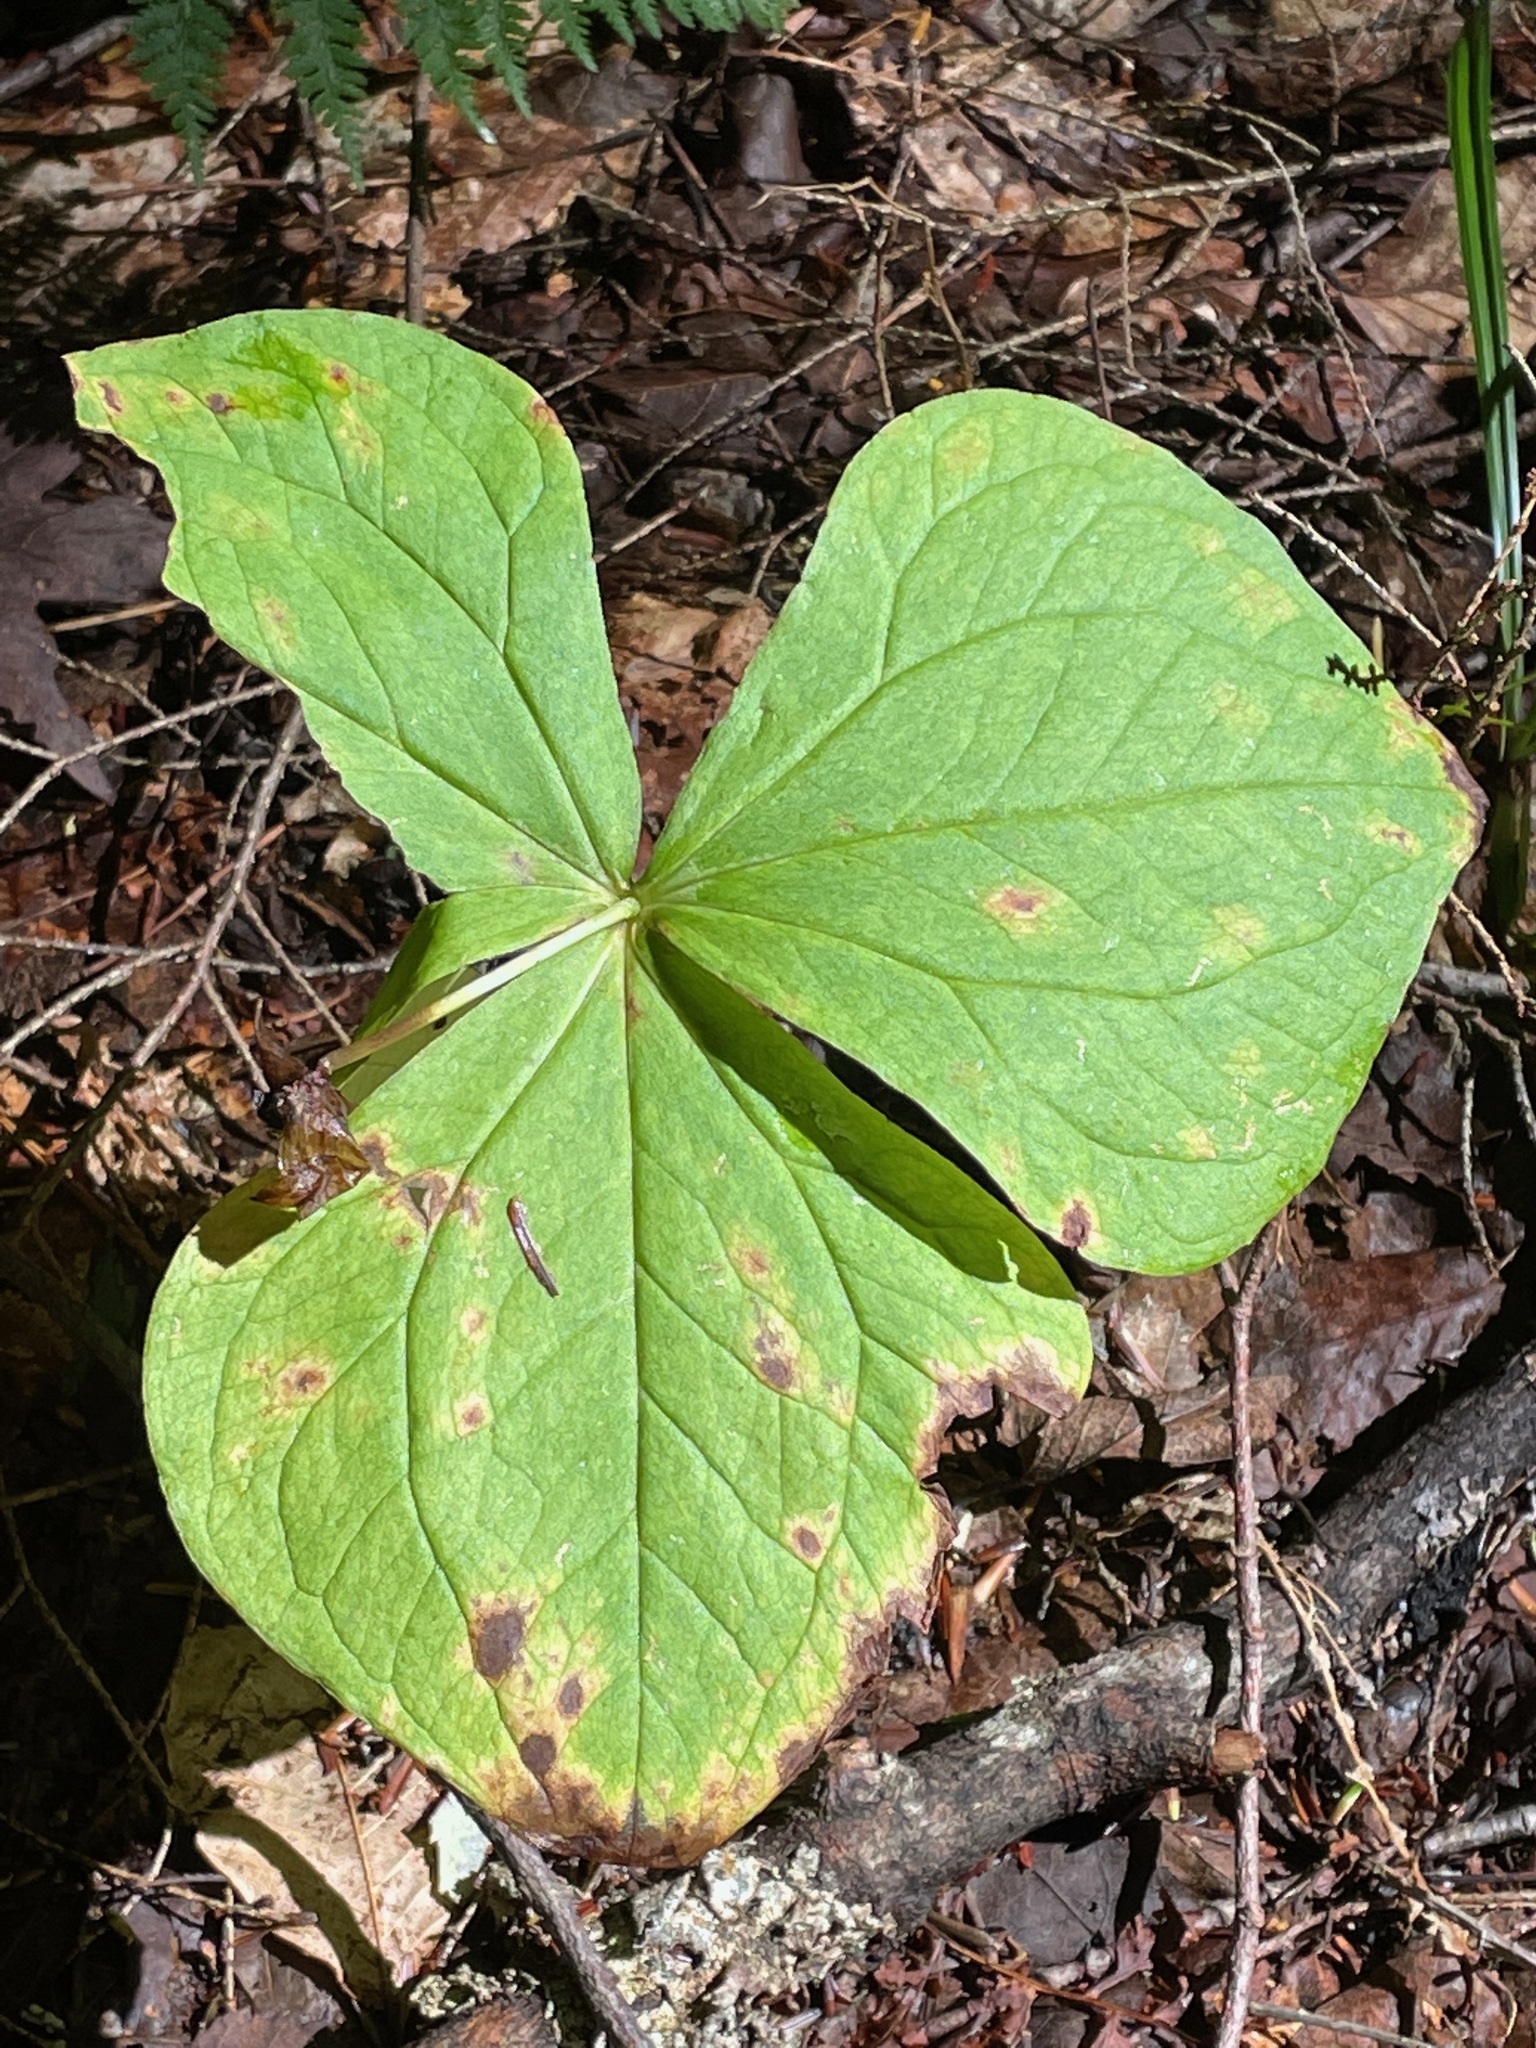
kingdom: Plantae
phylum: Tracheophyta
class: Liliopsida
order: Liliales
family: Melanthiaceae
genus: Trillium
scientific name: Trillium erectum
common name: Purple trillium
